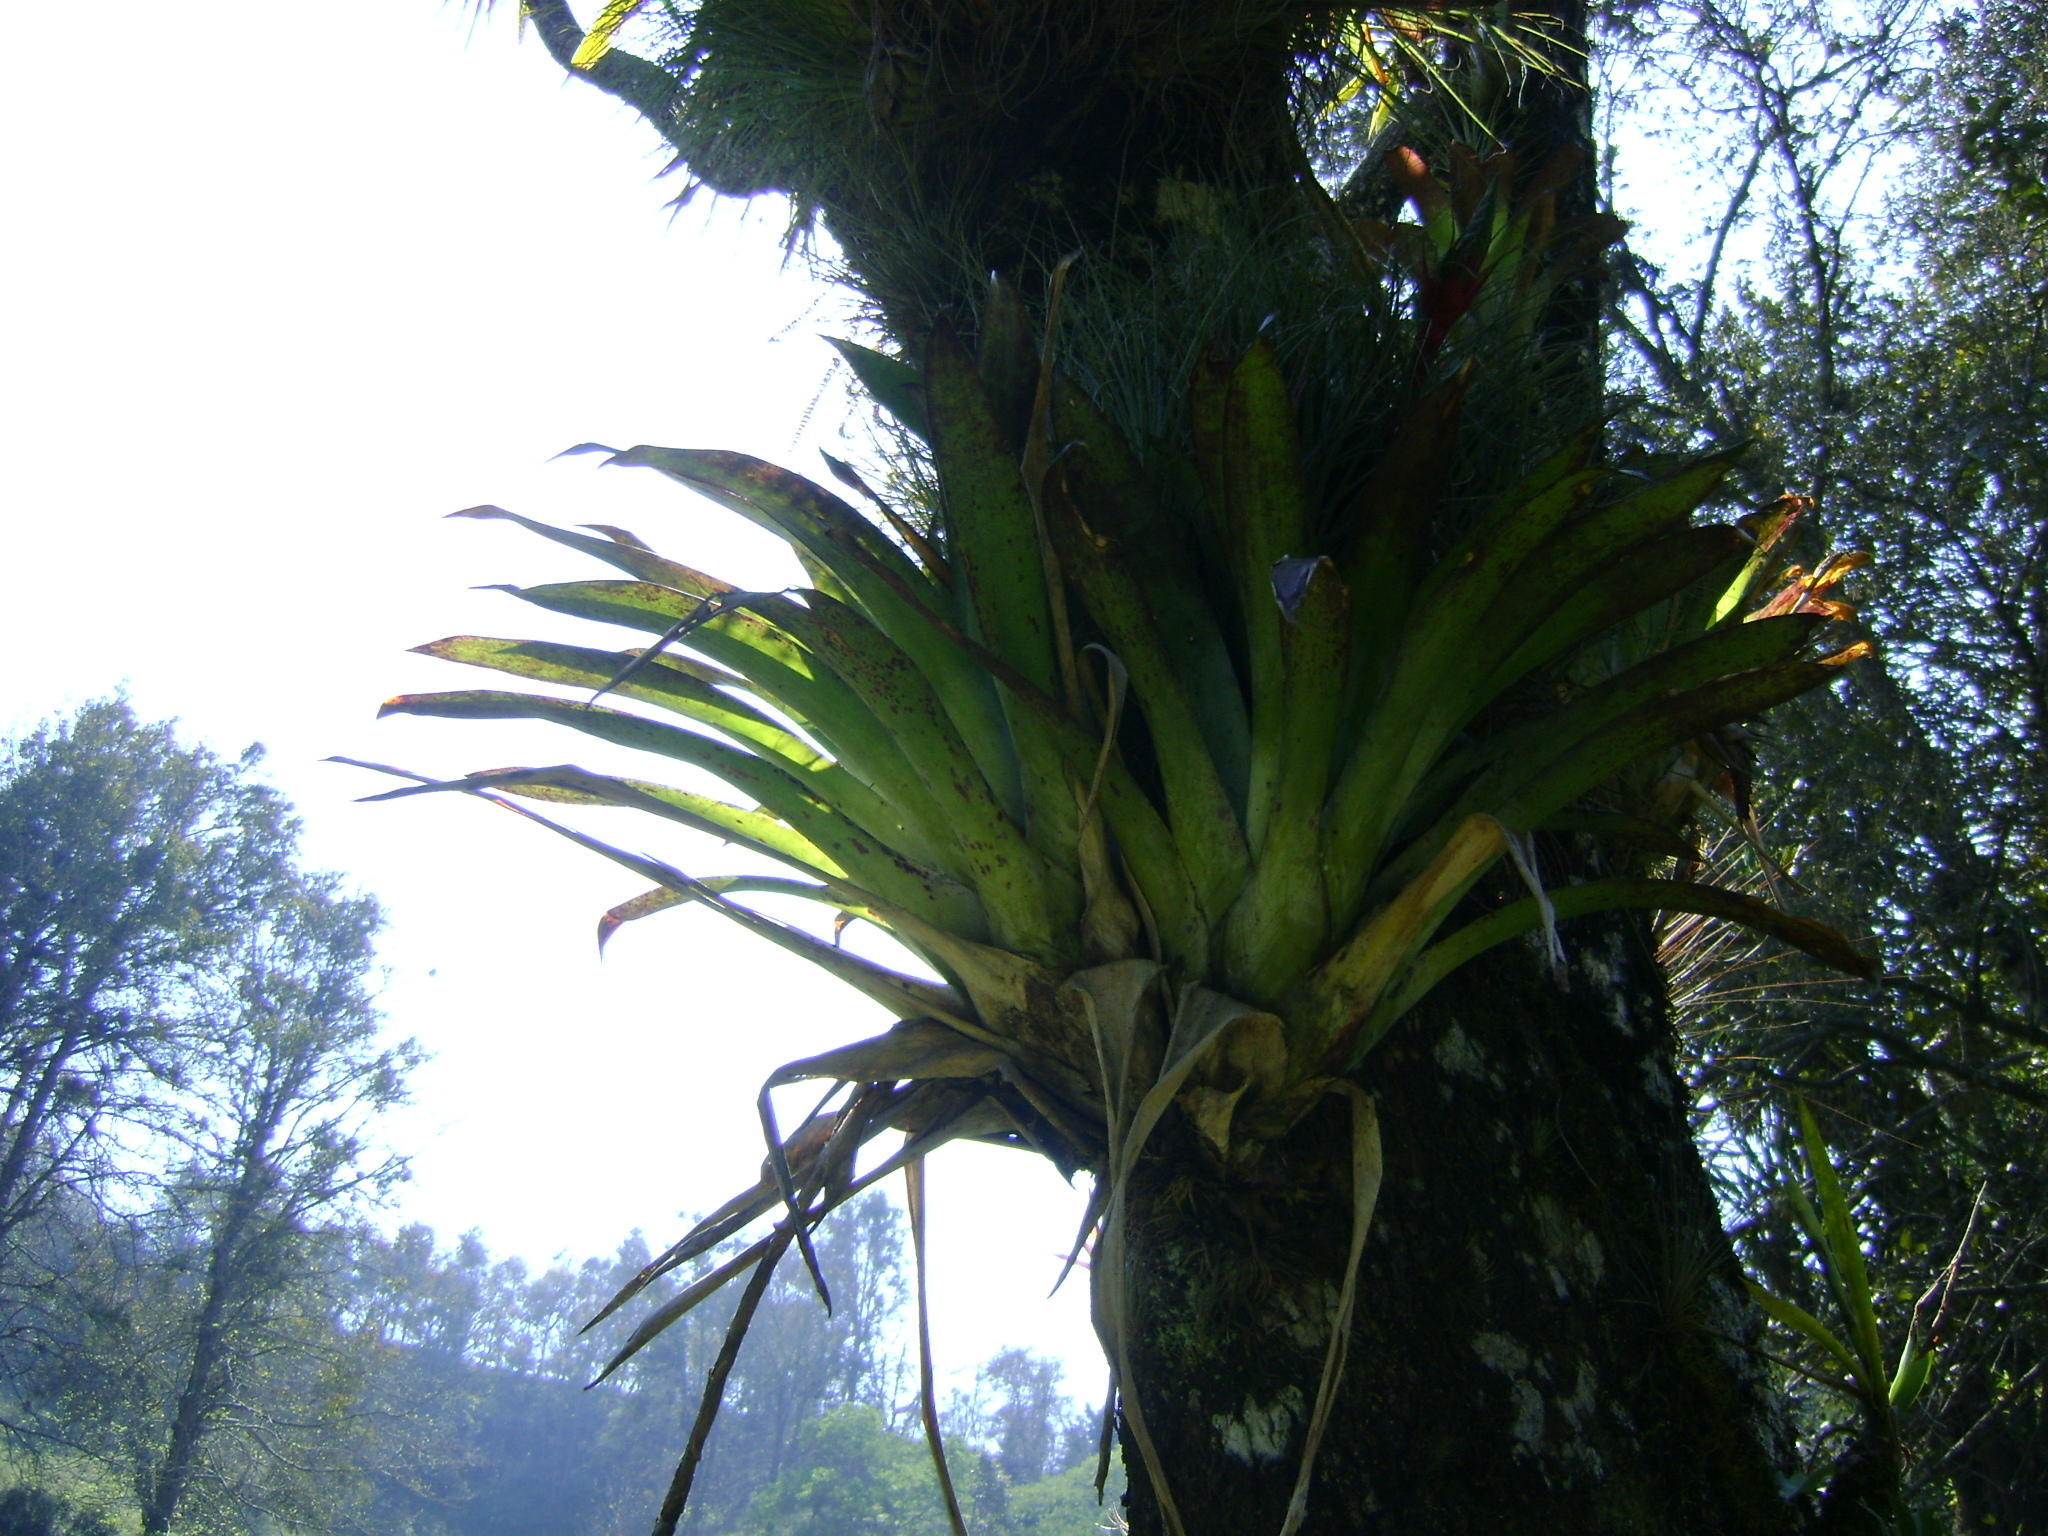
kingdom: Plantae
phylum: Tracheophyta
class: Liliopsida
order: Poales
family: Bromeliaceae
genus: Tillandsia
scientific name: Tillandsia deppeana
